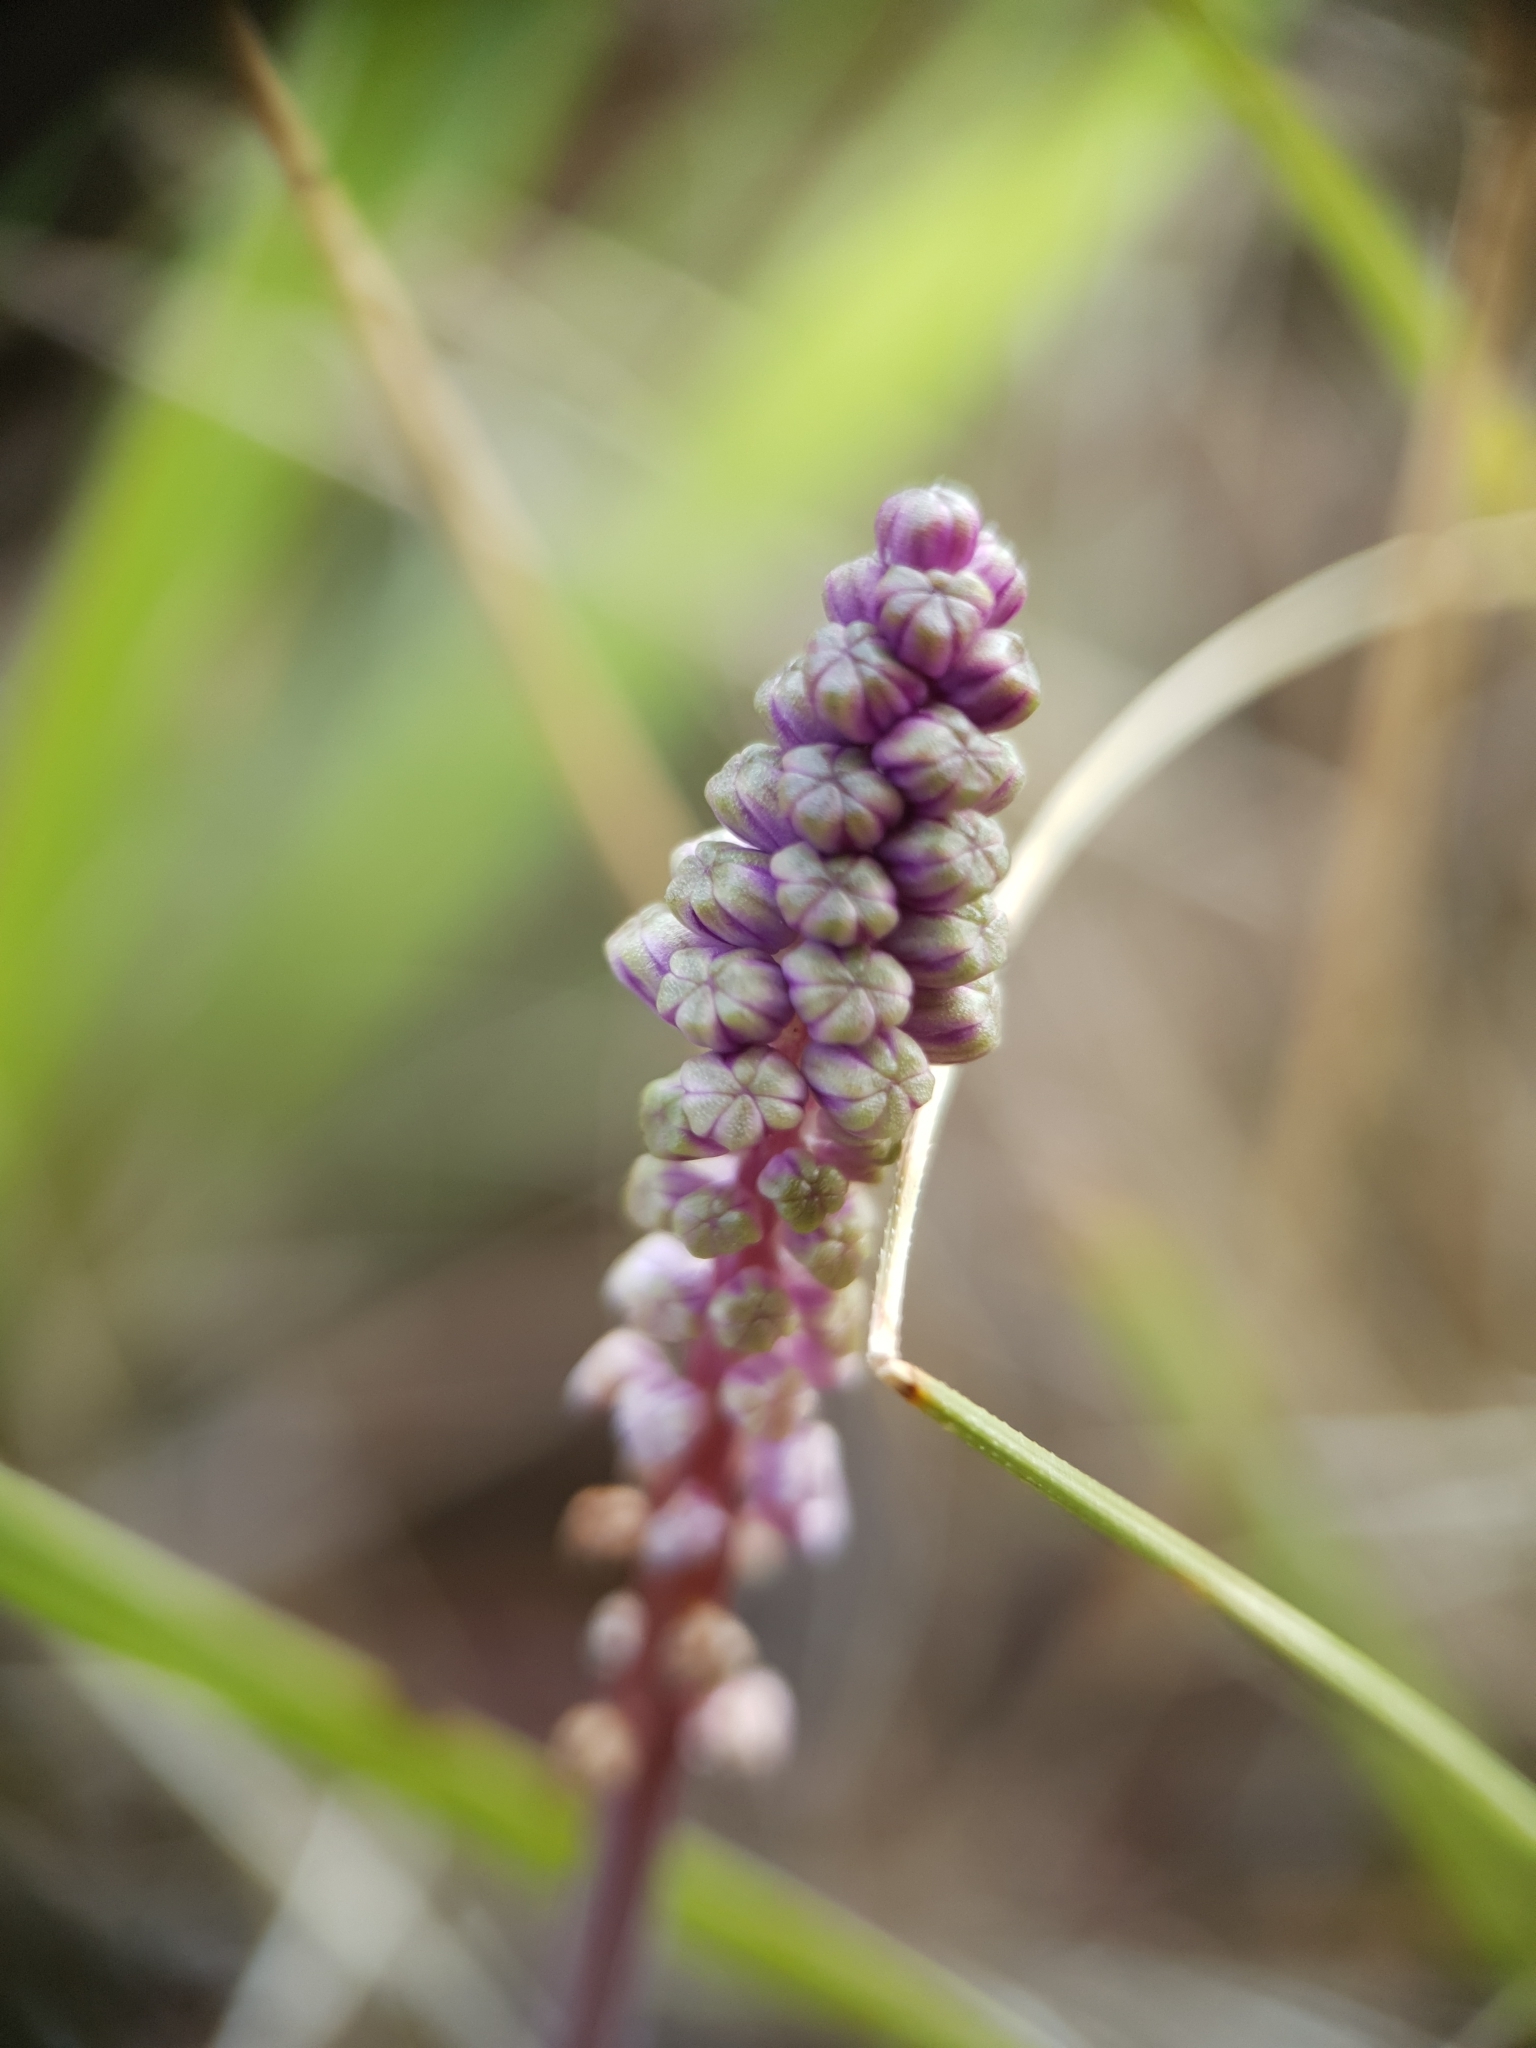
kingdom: Plantae
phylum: Tracheophyta
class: Liliopsida
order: Asparagales
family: Asparagaceae
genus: Barnardia
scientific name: Barnardia numidica
